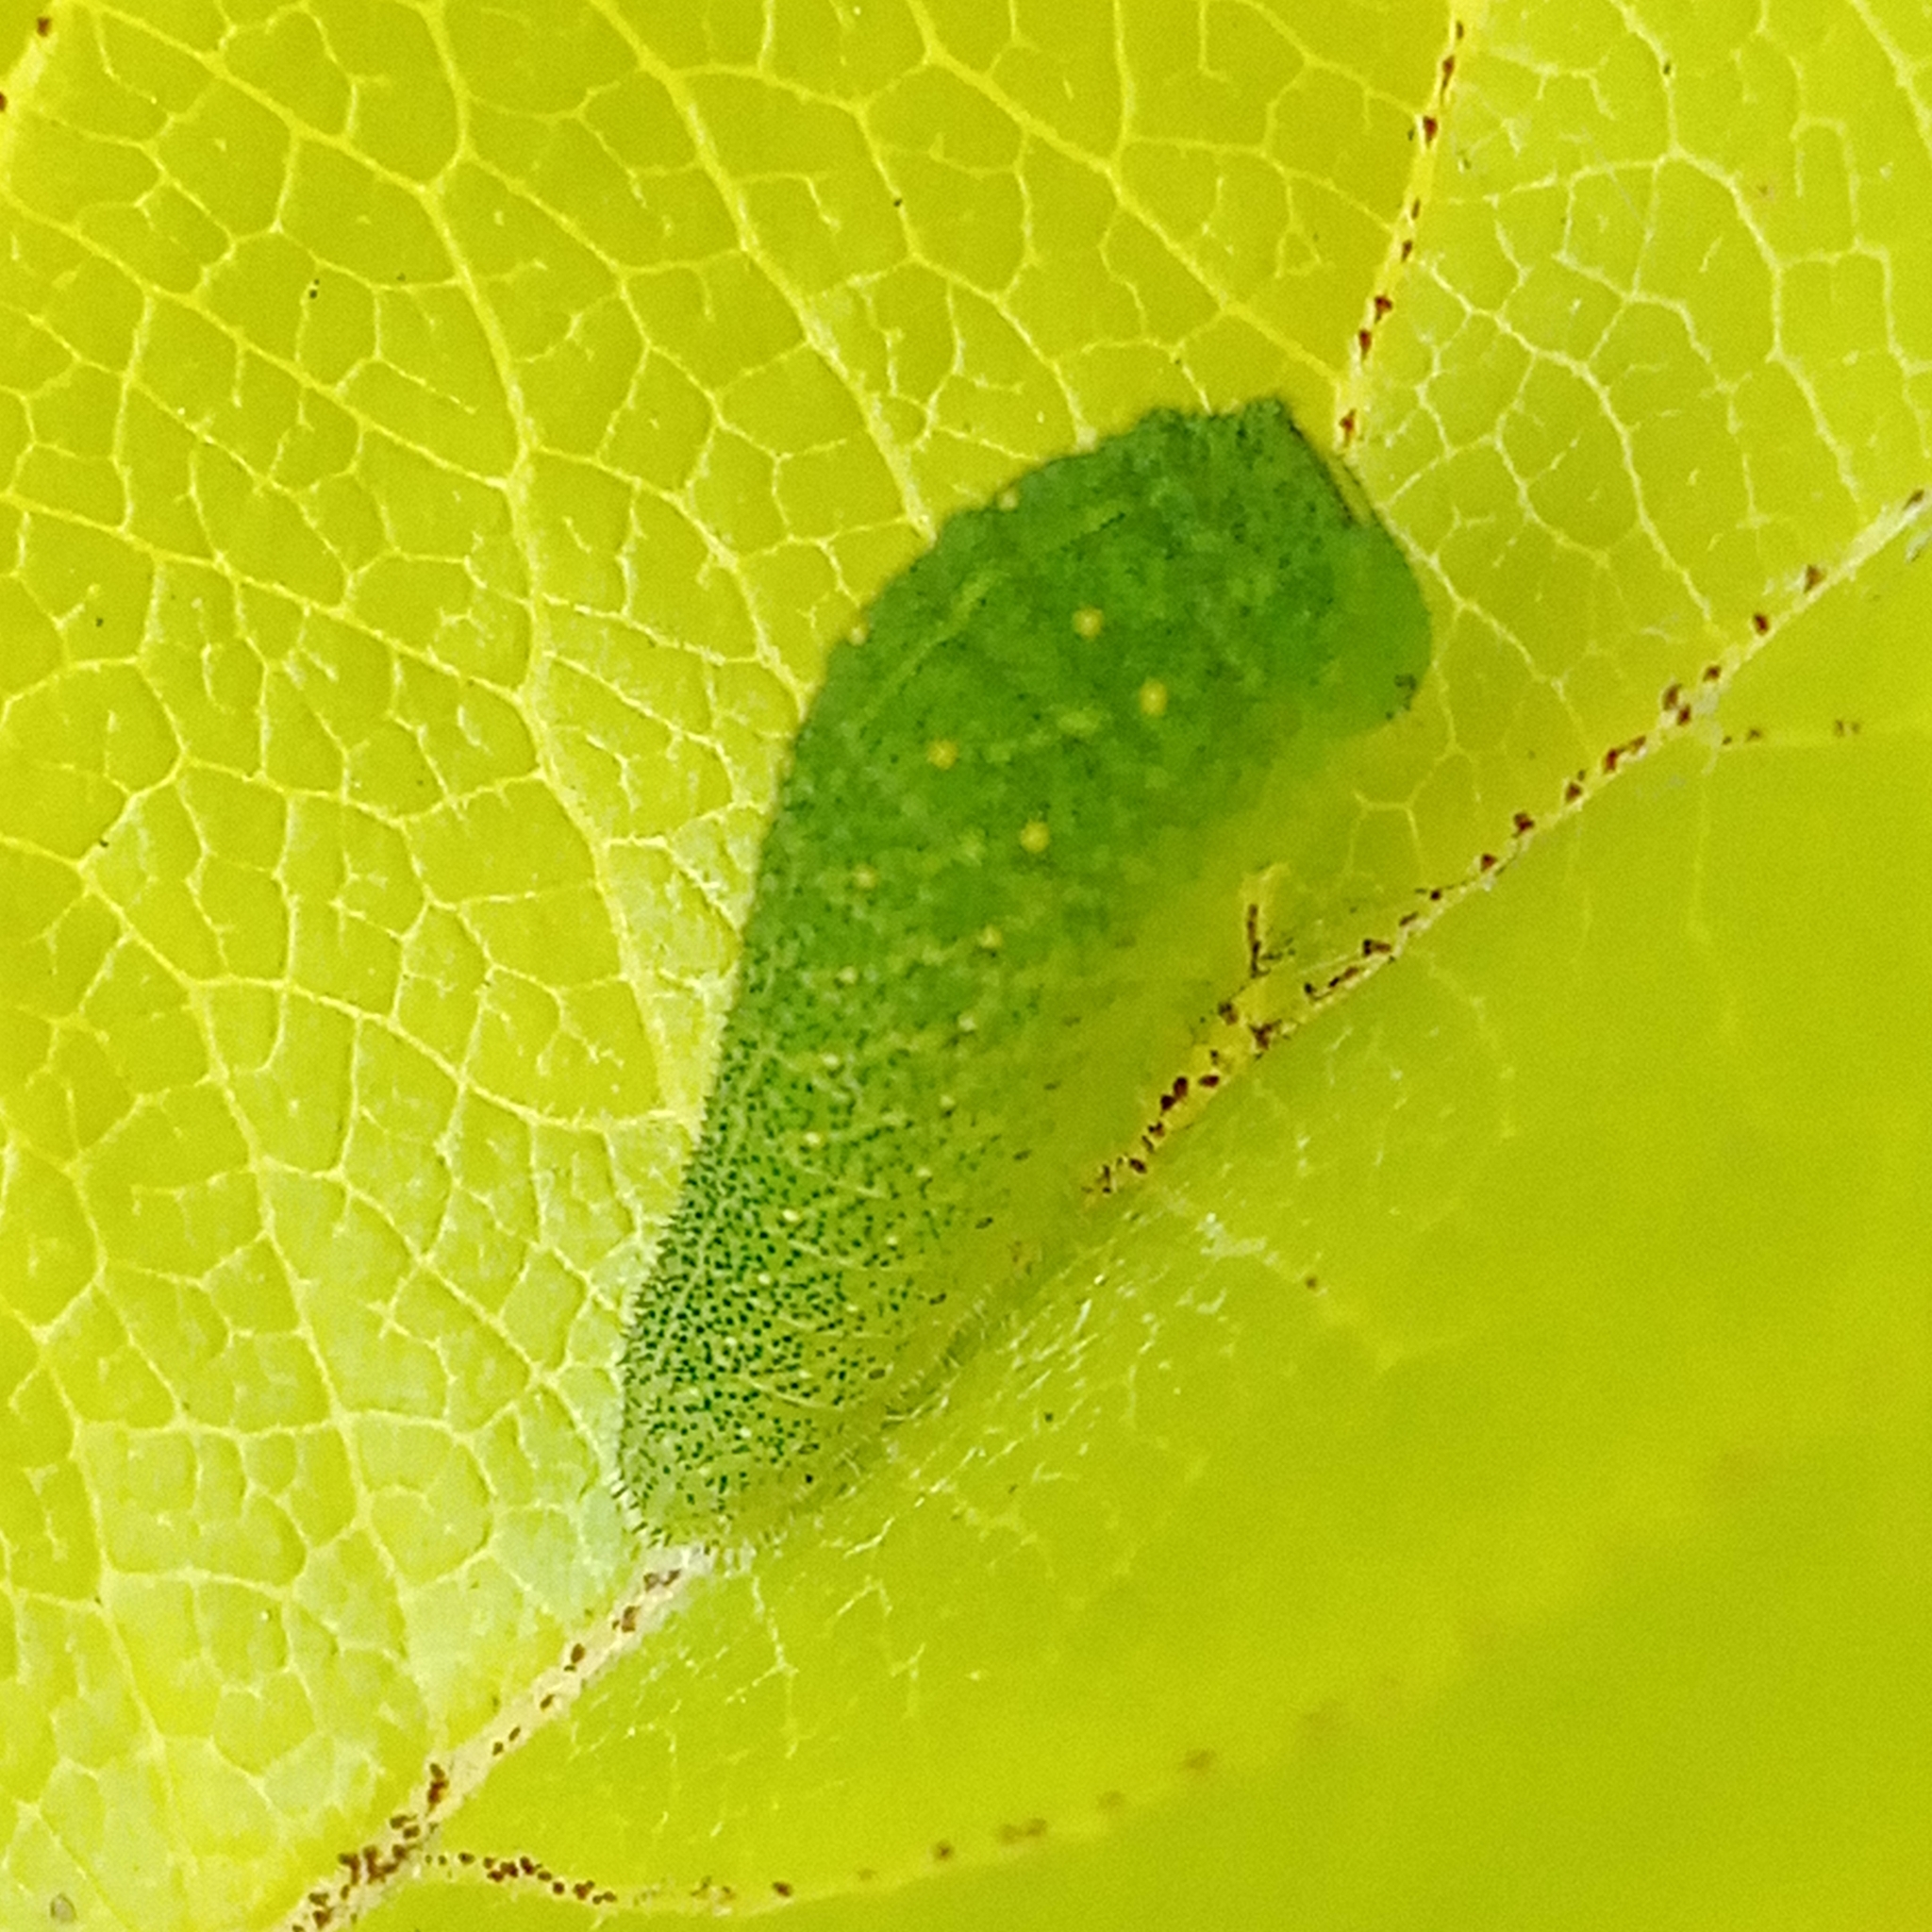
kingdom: Animalia
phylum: Arthropoda
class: Insecta
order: Lepidoptera
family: Papilionidae
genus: Iphiclides
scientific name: Iphiclides podalirius
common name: Scarce swallowtail
